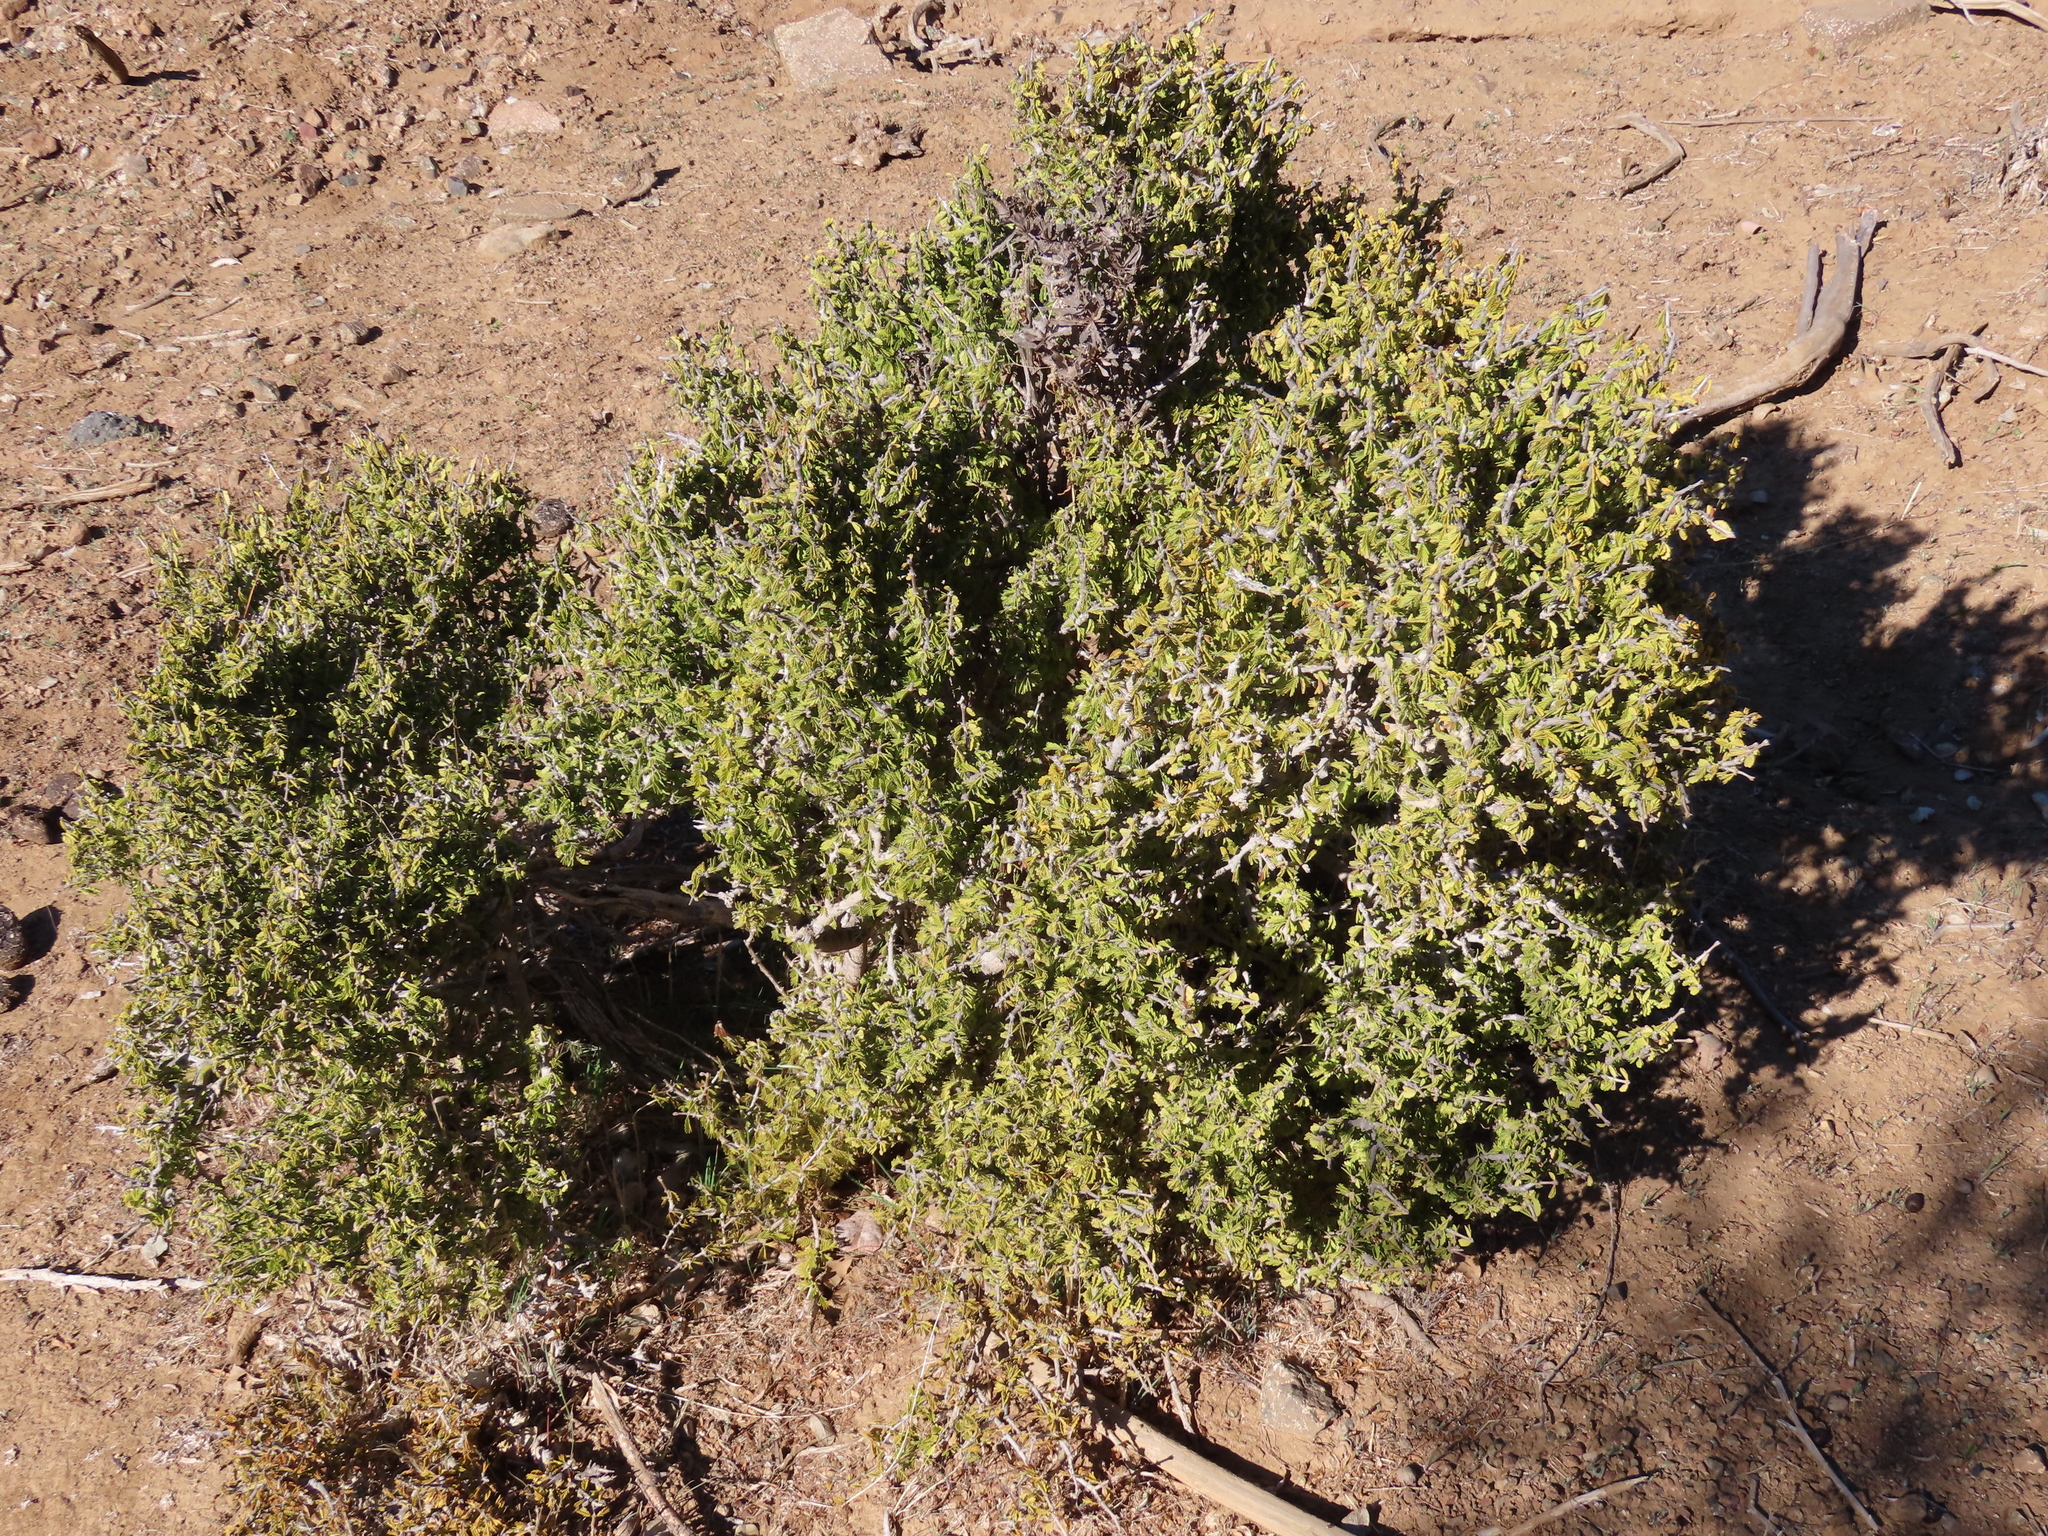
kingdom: Plantae
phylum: Tracheophyta
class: Magnoliopsida
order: Zygophyllales
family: Zygophyllaceae
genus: Porlieria
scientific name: Porlieria chilensis
